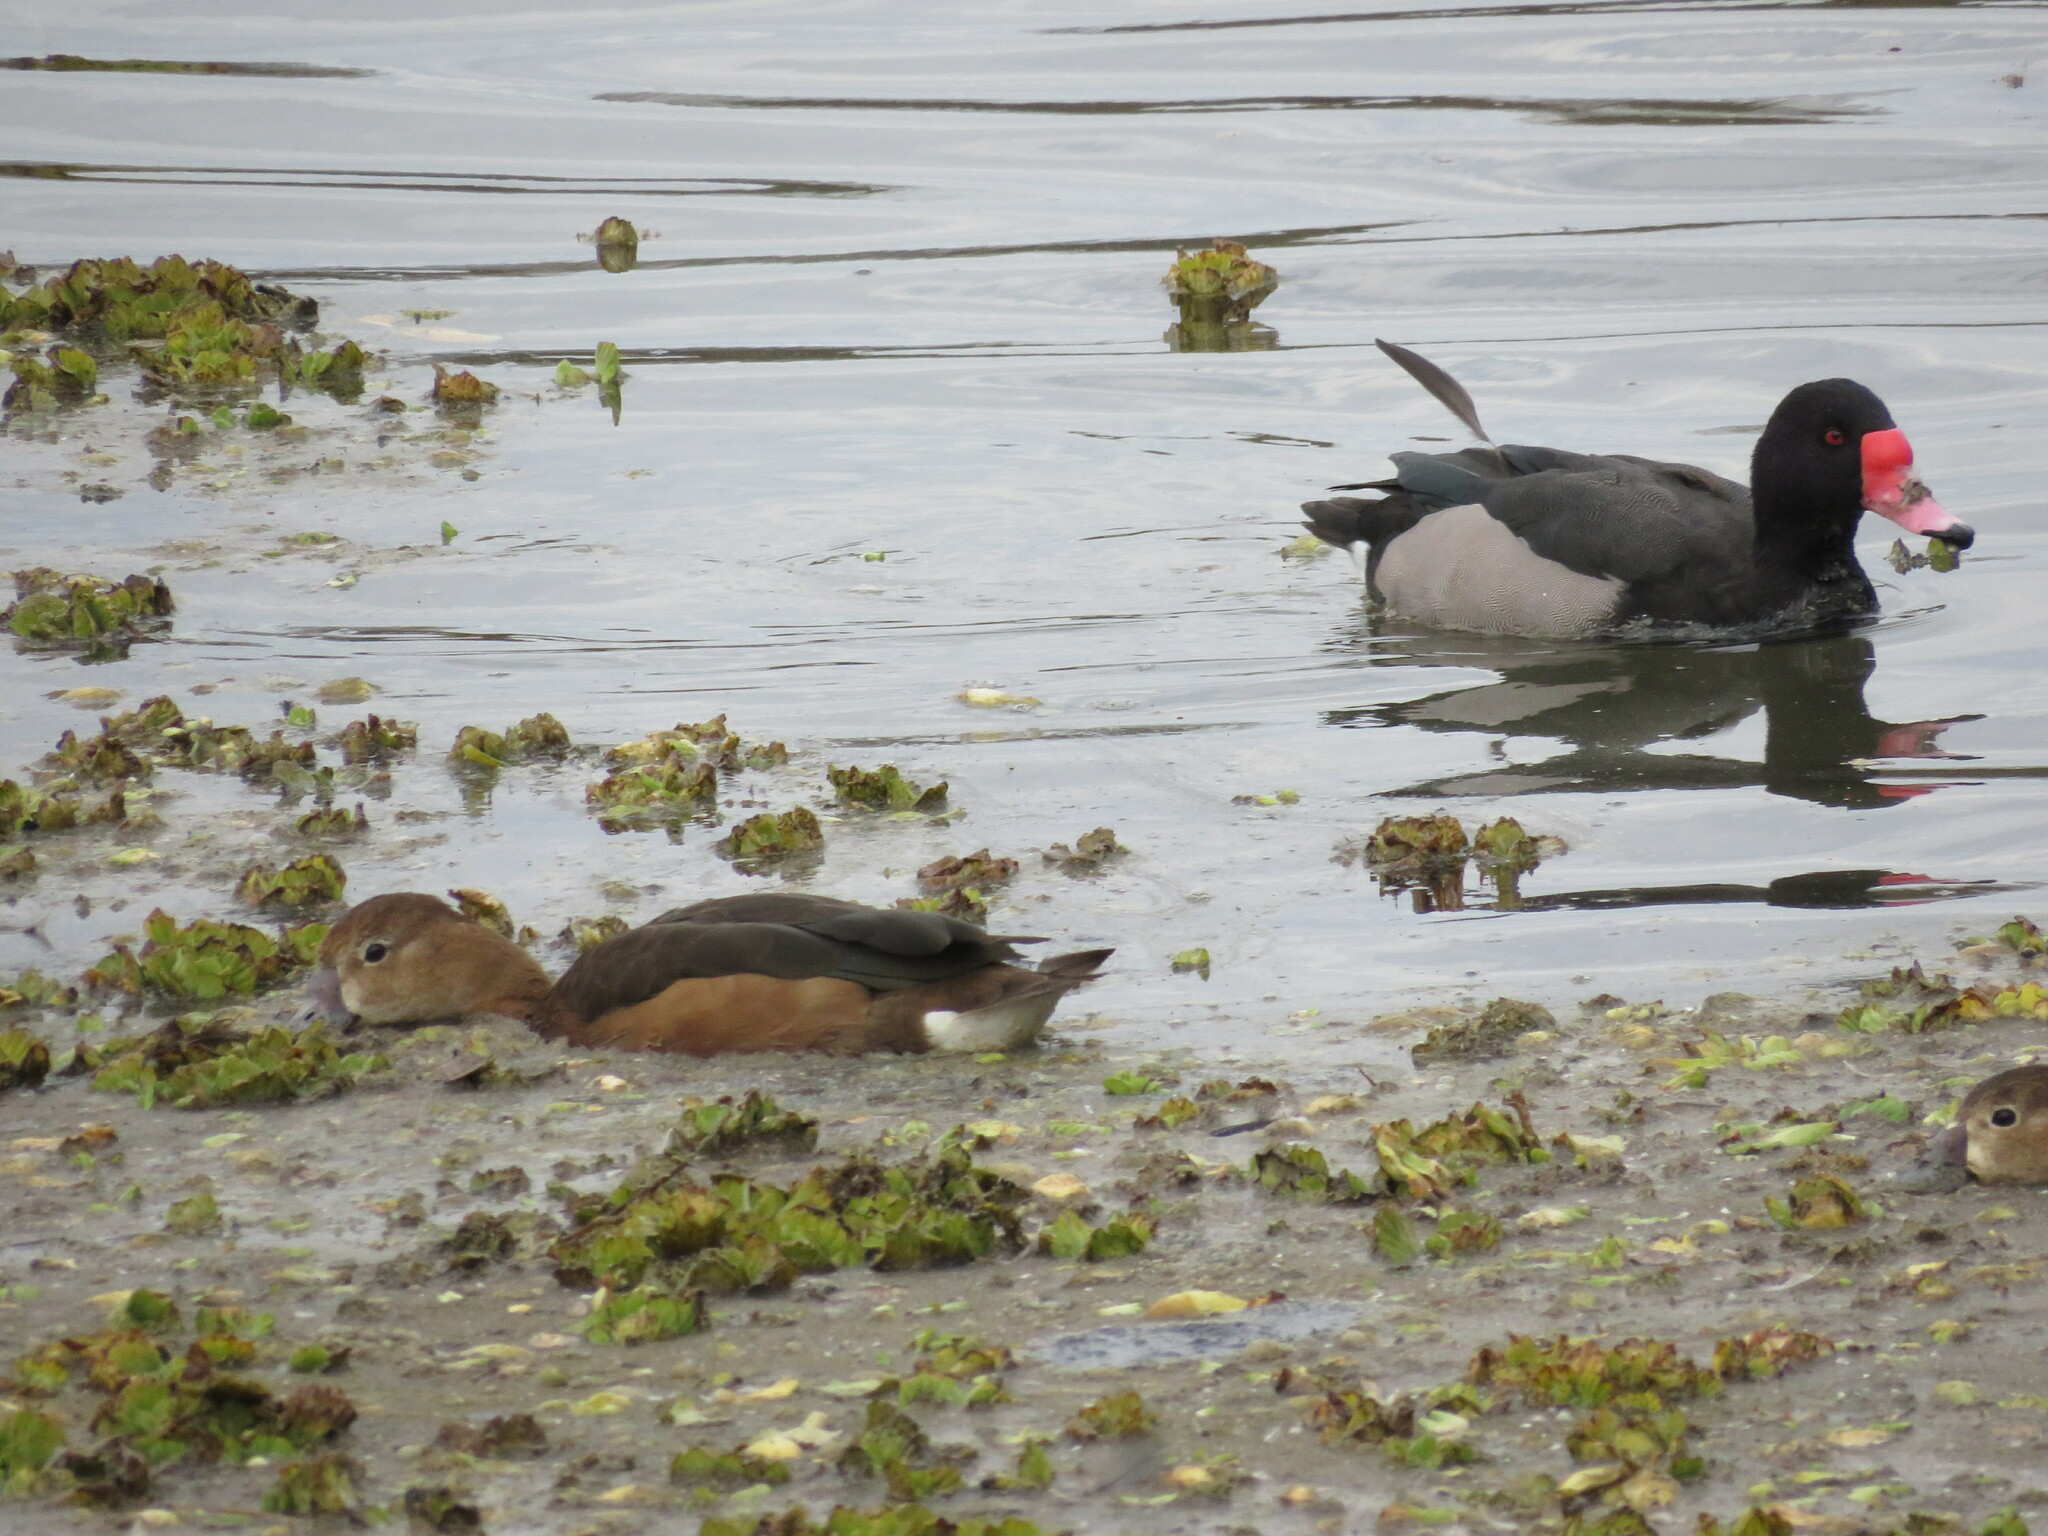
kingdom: Animalia
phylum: Chordata
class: Aves
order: Anseriformes
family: Anatidae
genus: Netta
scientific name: Netta peposaca
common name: Rosy-billed pochard
